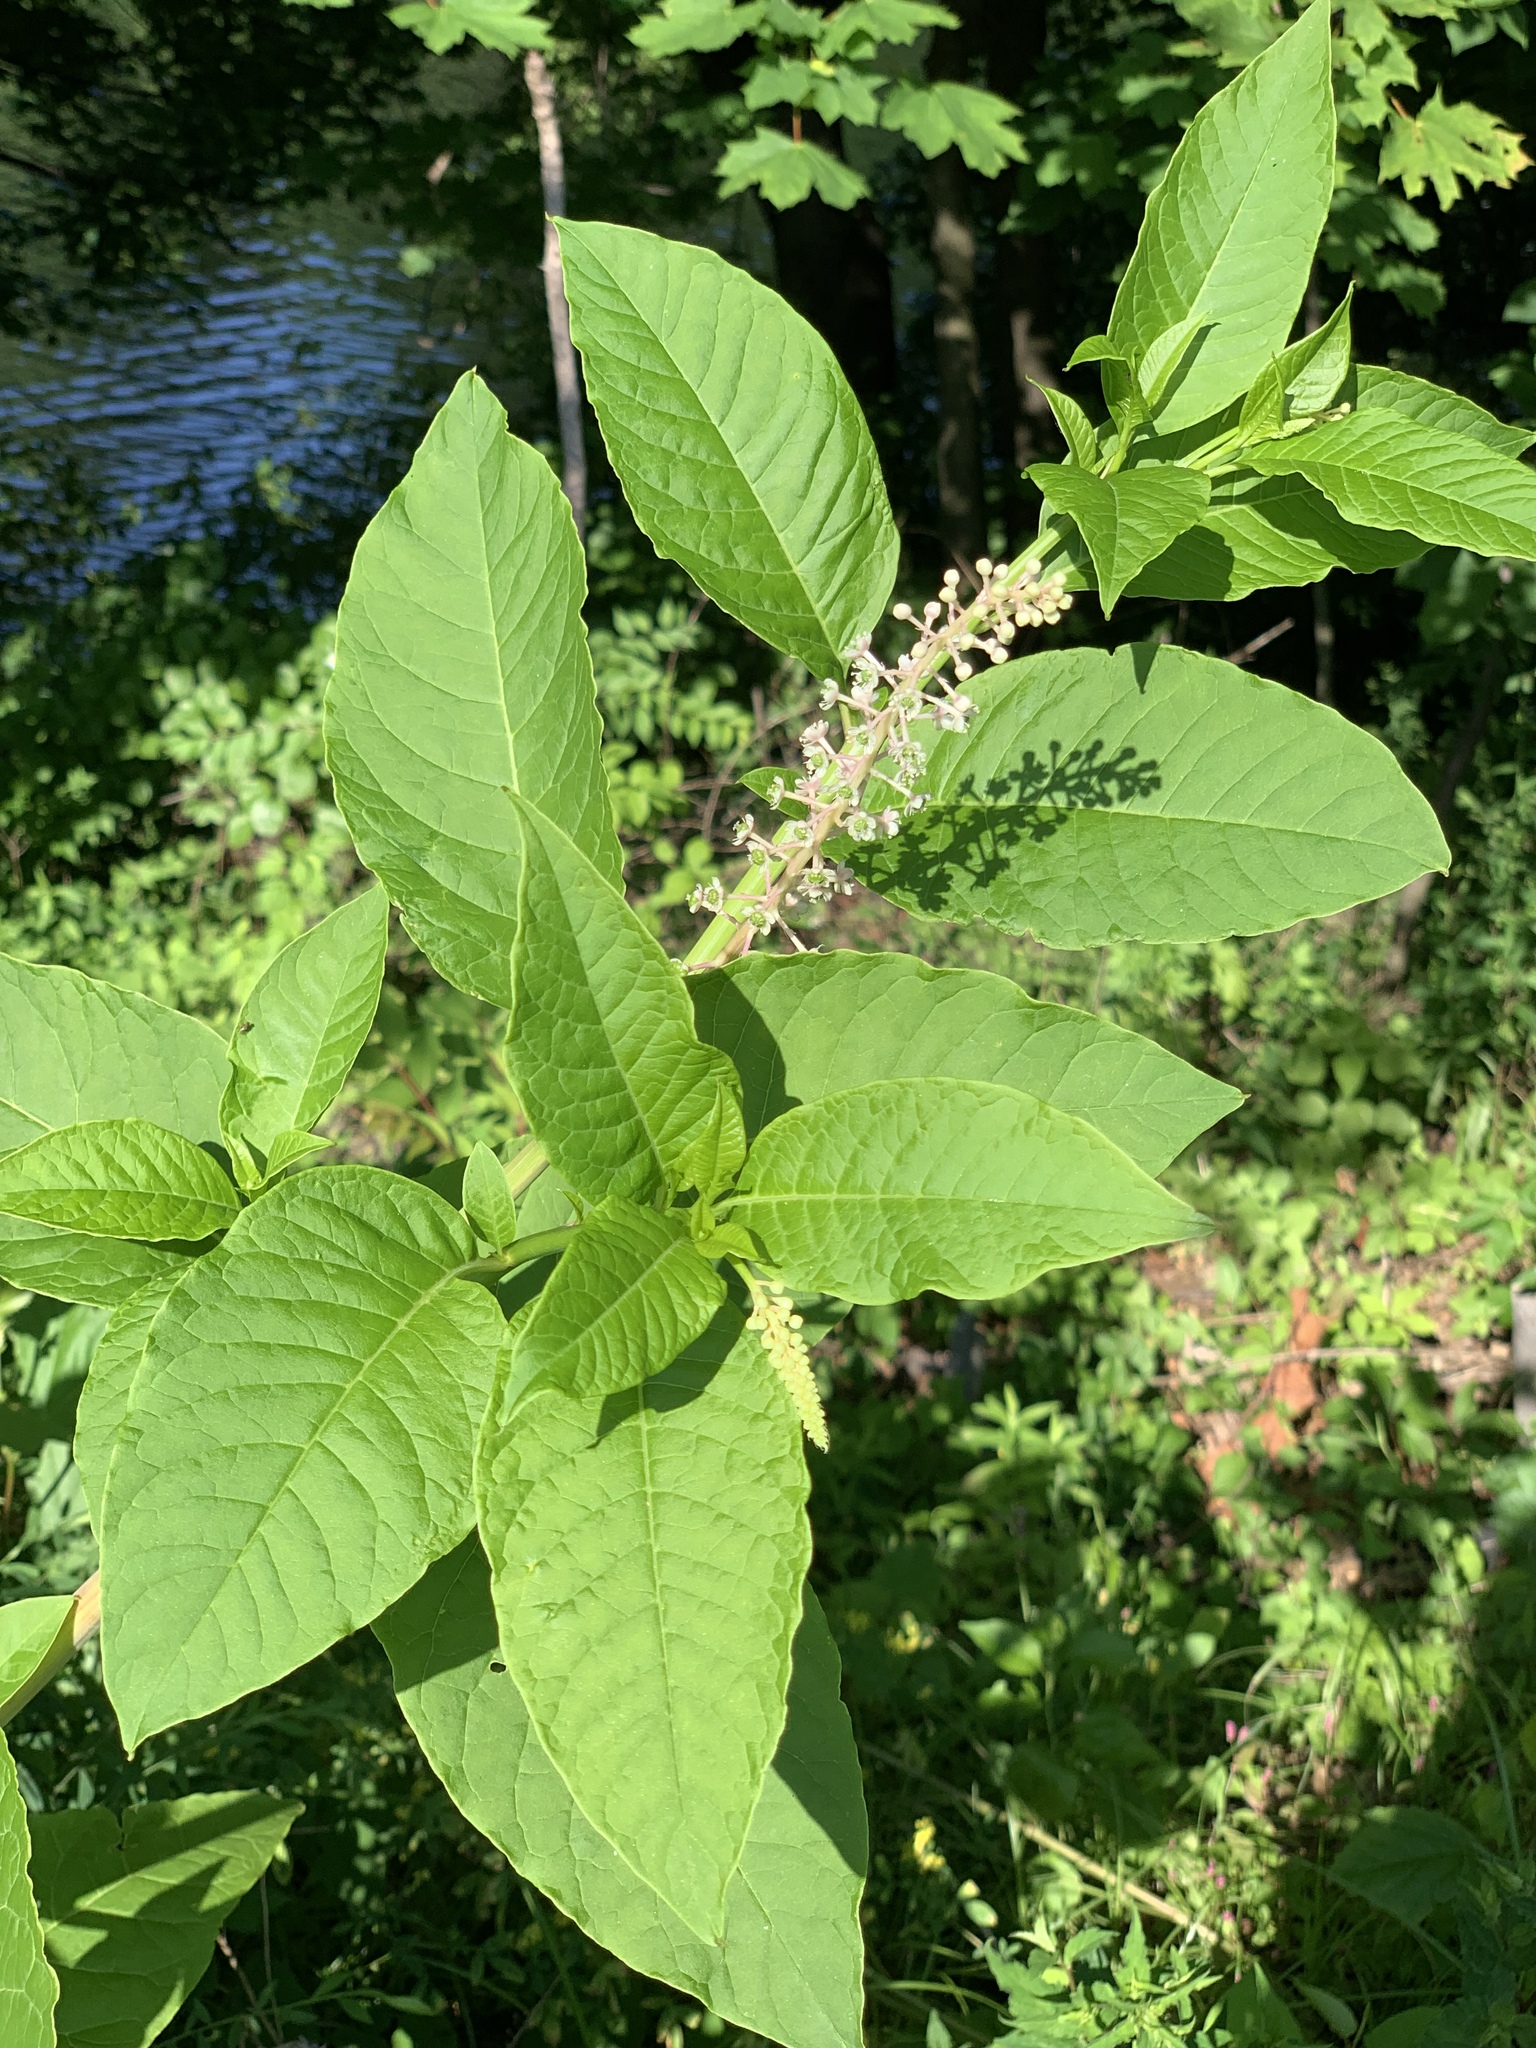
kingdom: Plantae
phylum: Tracheophyta
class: Magnoliopsida
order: Caryophyllales
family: Phytolaccaceae
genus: Phytolacca
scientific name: Phytolacca americana
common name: American pokeweed
